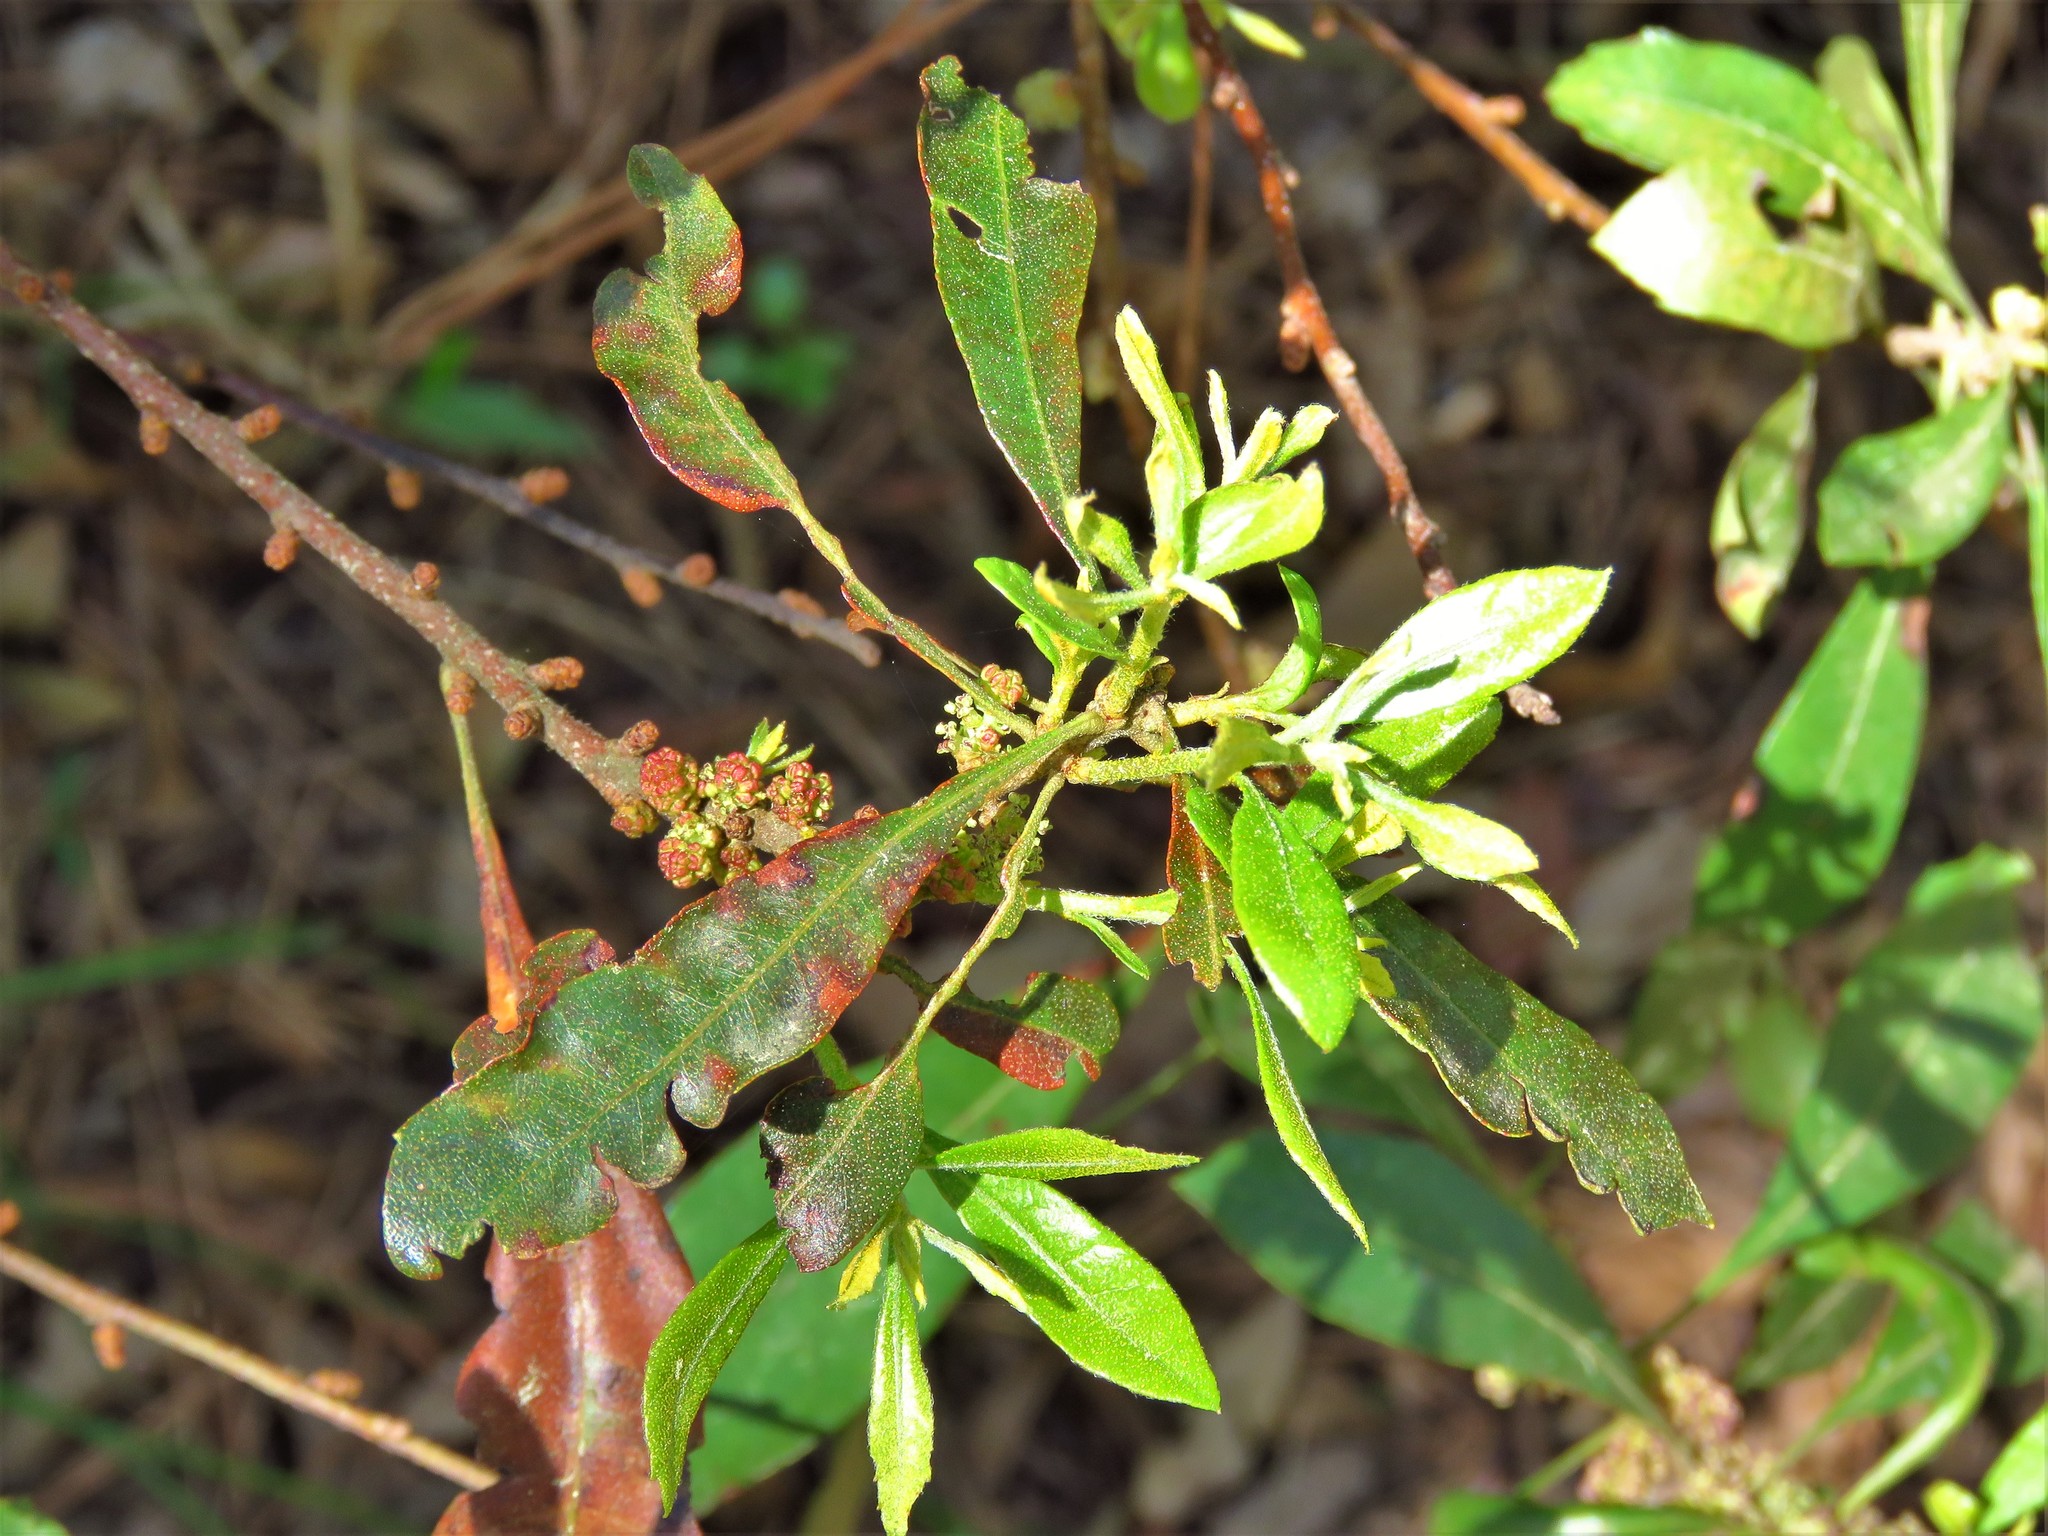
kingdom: Plantae
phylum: Tracheophyta
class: Magnoliopsida
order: Fagales
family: Myricaceae
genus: Morella
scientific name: Morella cerifera
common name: Wax myrtle
